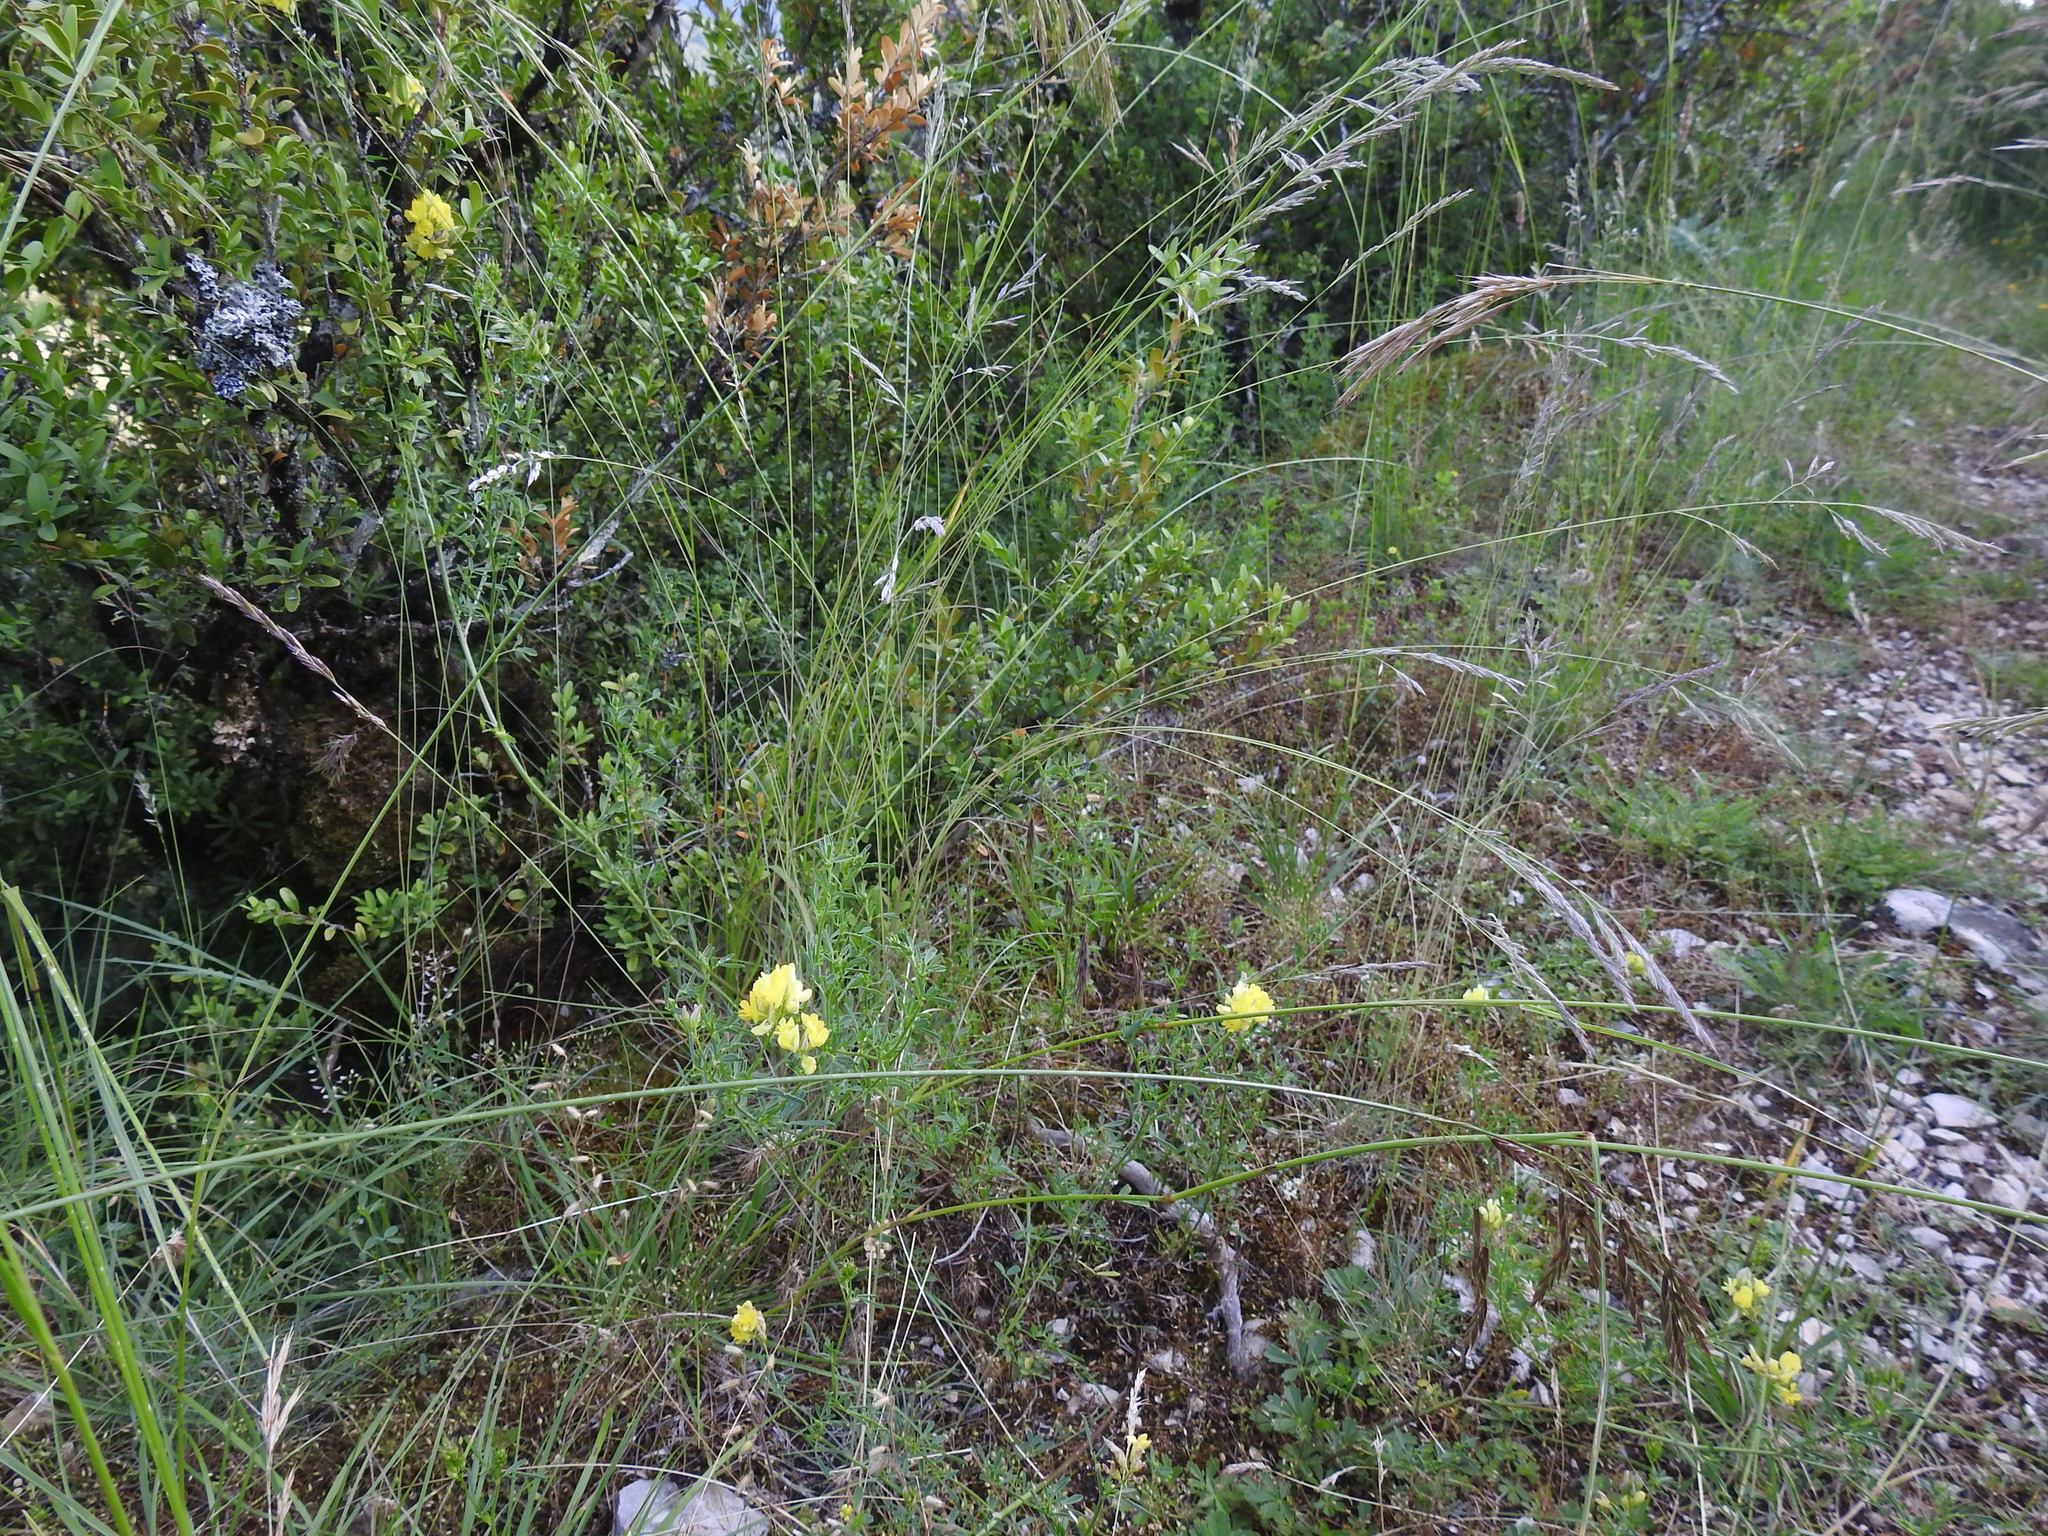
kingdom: Plantae
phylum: Tracheophyta
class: Magnoliopsida
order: Fabales
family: Fabaceae
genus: Medicago
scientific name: Medicago falcata
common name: Sickle medick
